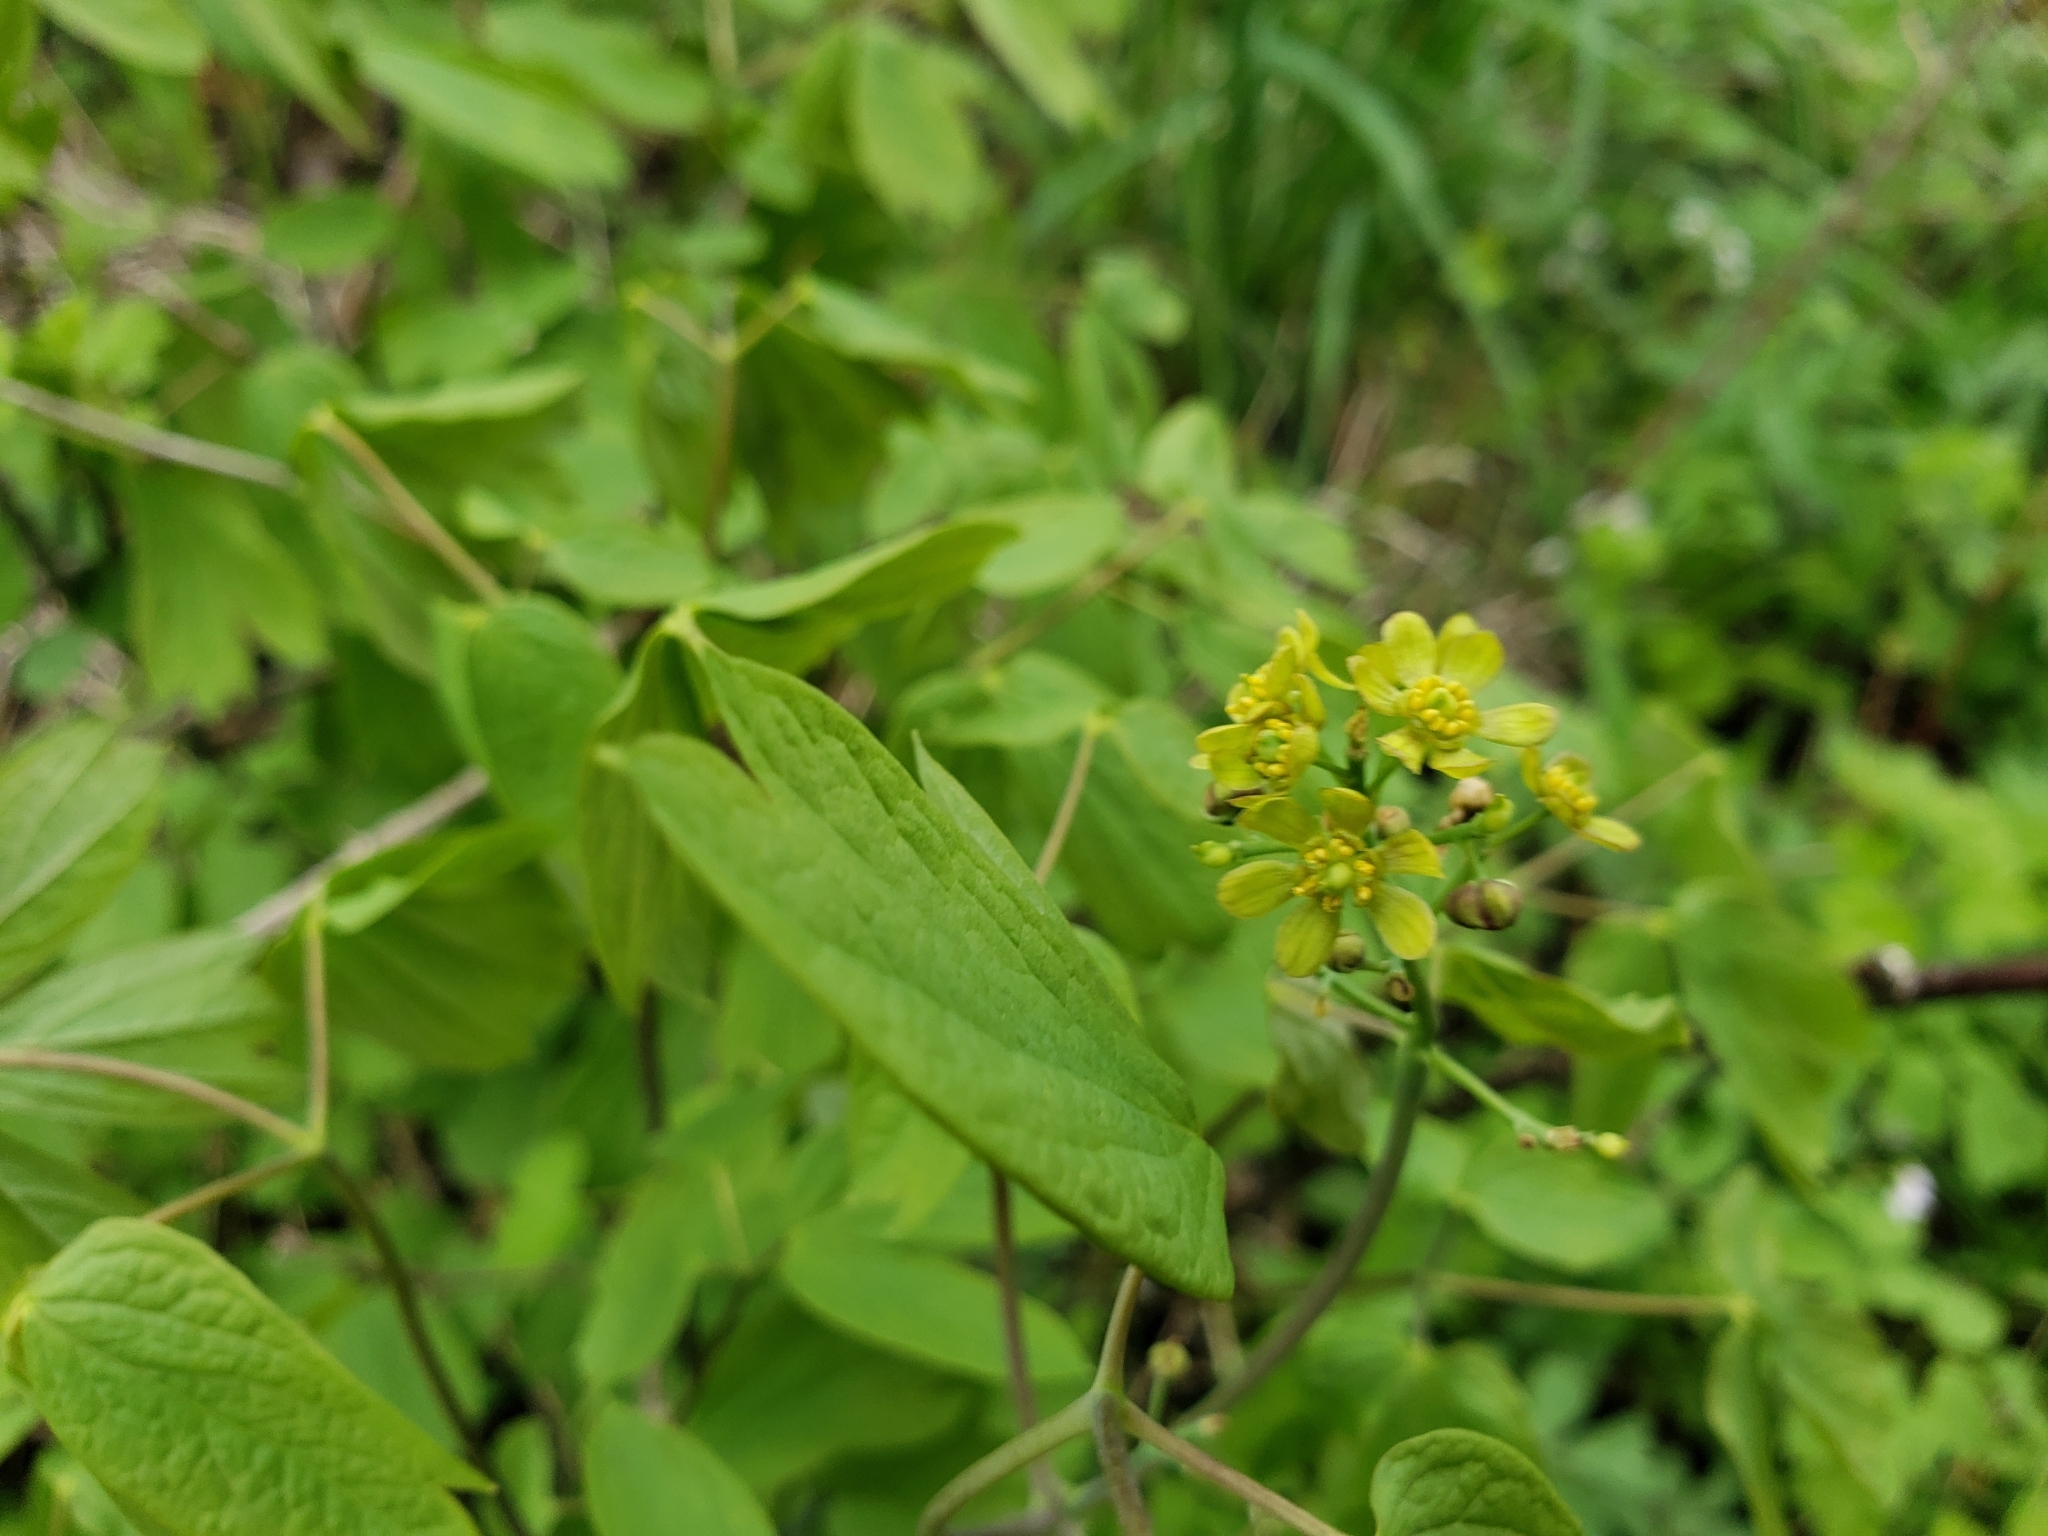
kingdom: Plantae
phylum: Tracheophyta
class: Magnoliopsida
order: Ranunculales
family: Berberidaceae
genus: Caulophyllum
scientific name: Caulophyllum thalictroides
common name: Blue cohosh
